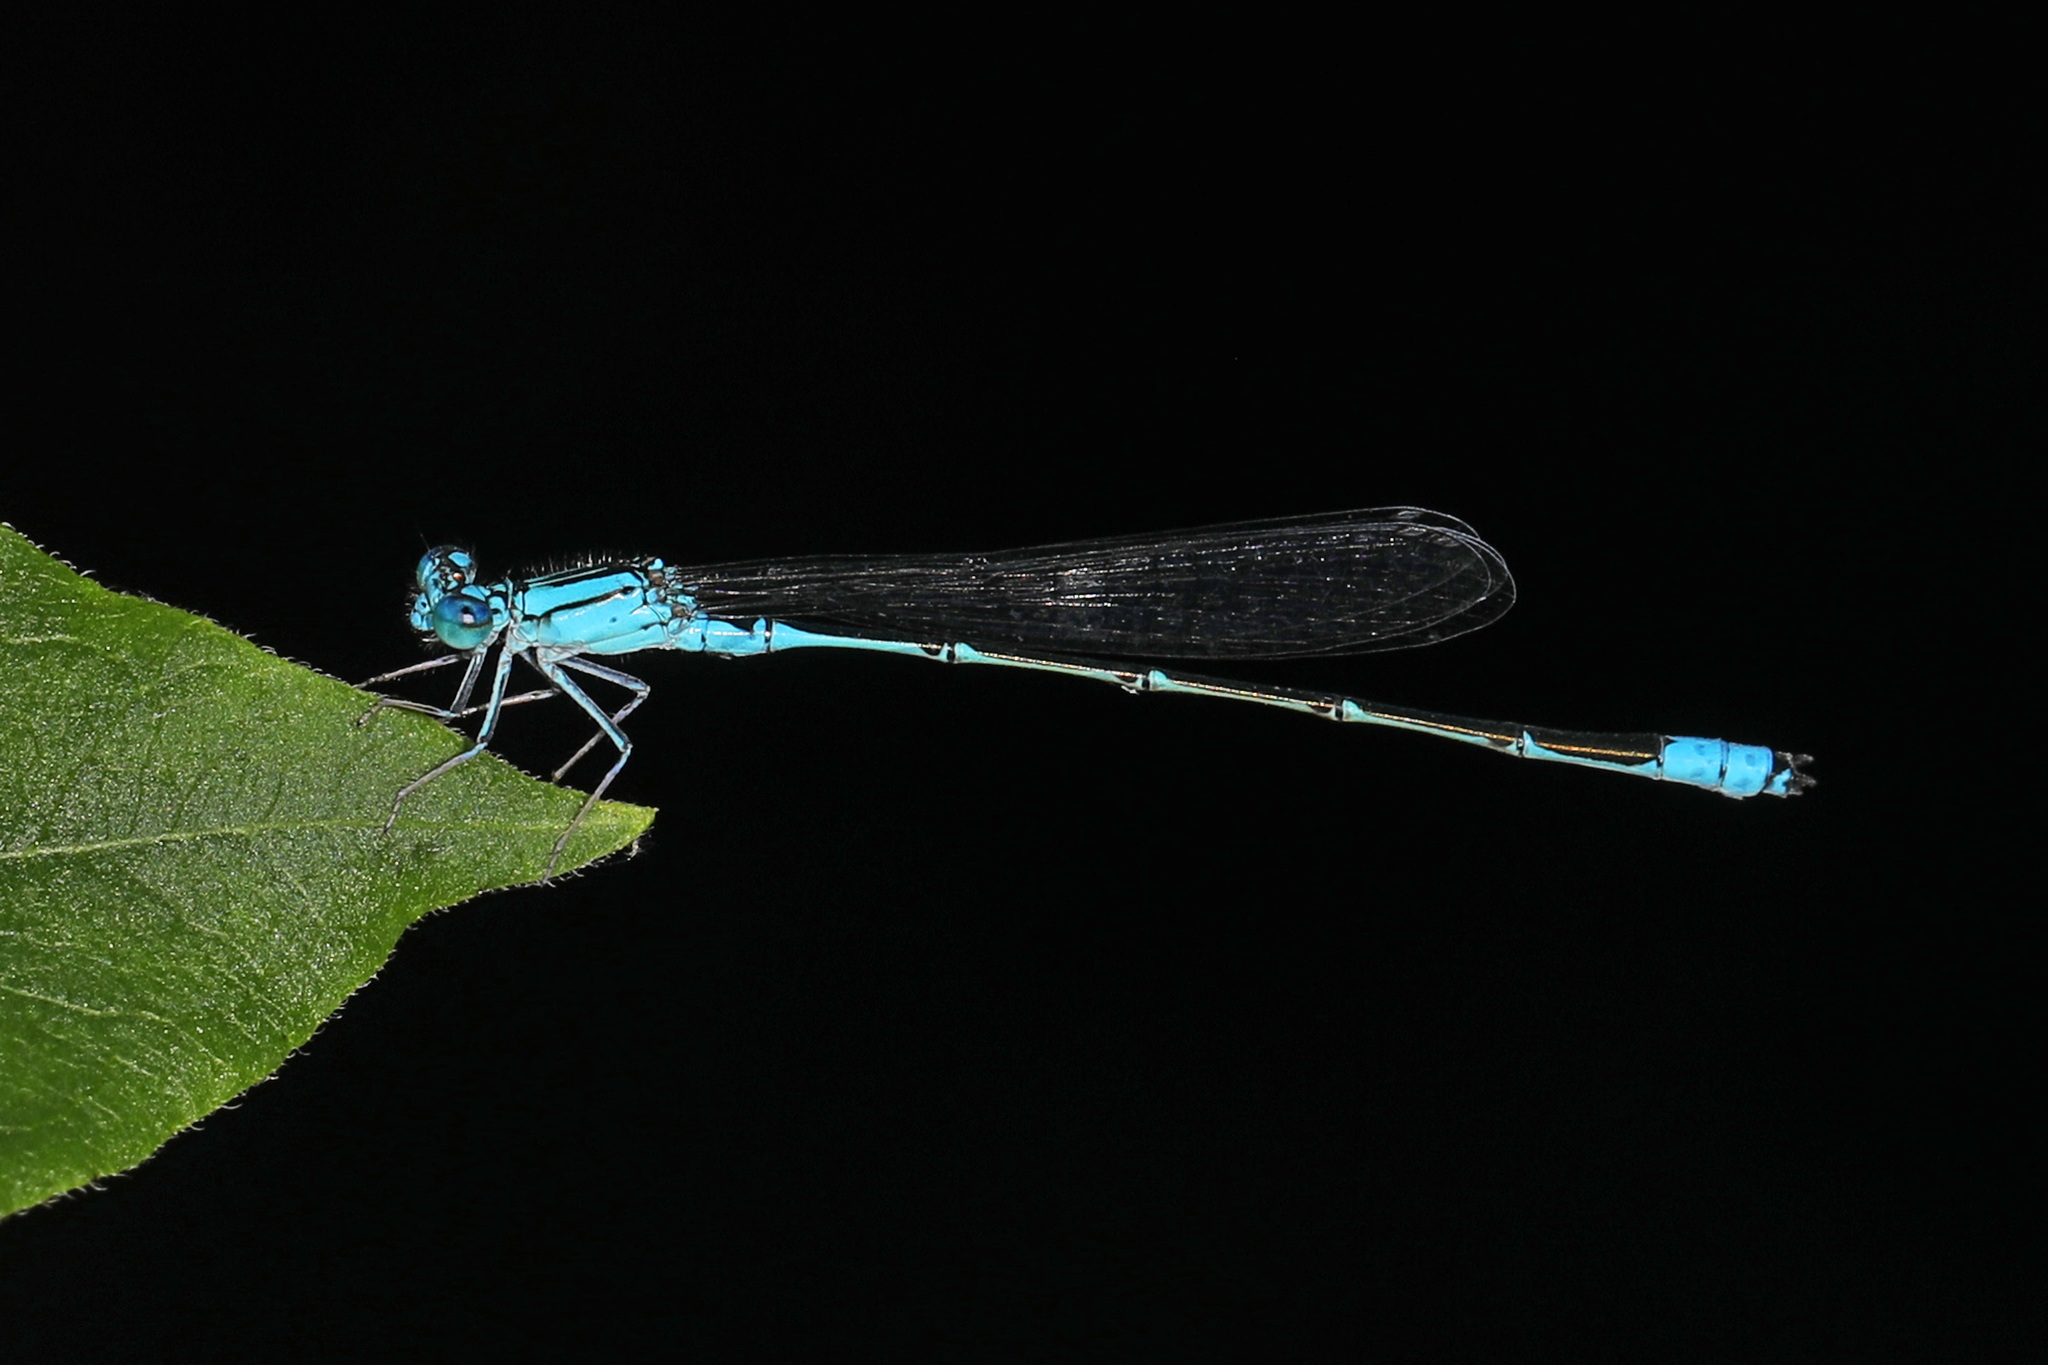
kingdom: Animalia
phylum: Arthropoda
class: Insecta
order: Odonata
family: Coenagrionidae
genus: Enallagma
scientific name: Enallagma traviatum
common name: Slender bluet
